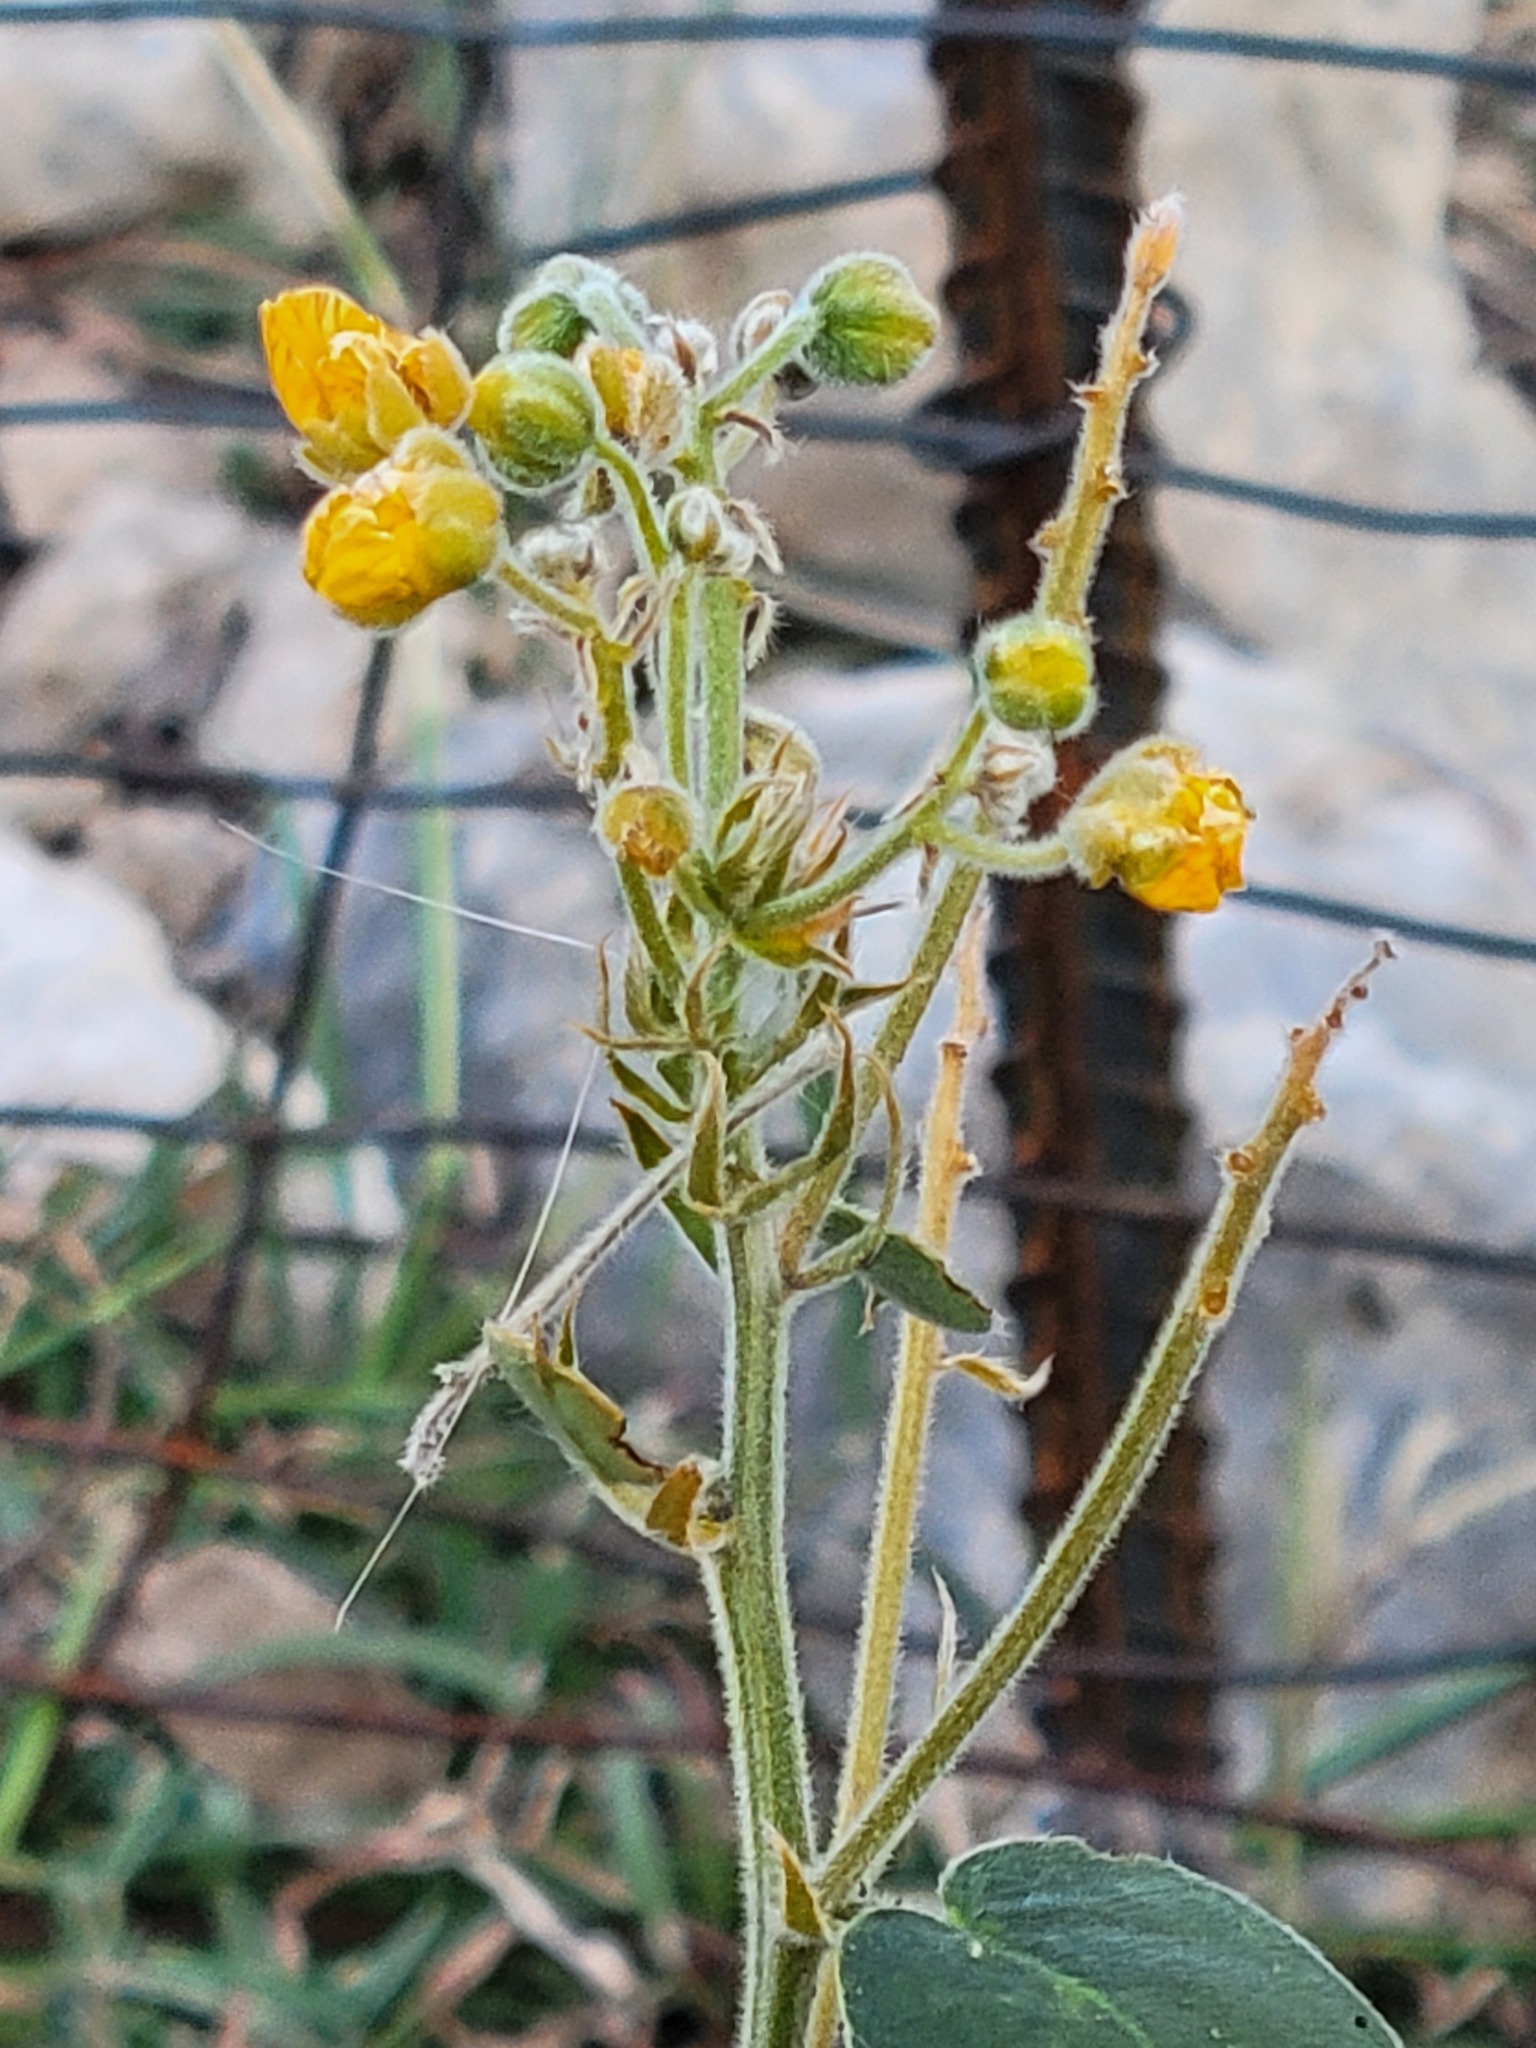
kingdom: Plantae
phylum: Tracheophyta
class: Magnoliopsida
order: Fabales
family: Fabaceae
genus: Senna
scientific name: Senna lindheimeriana
